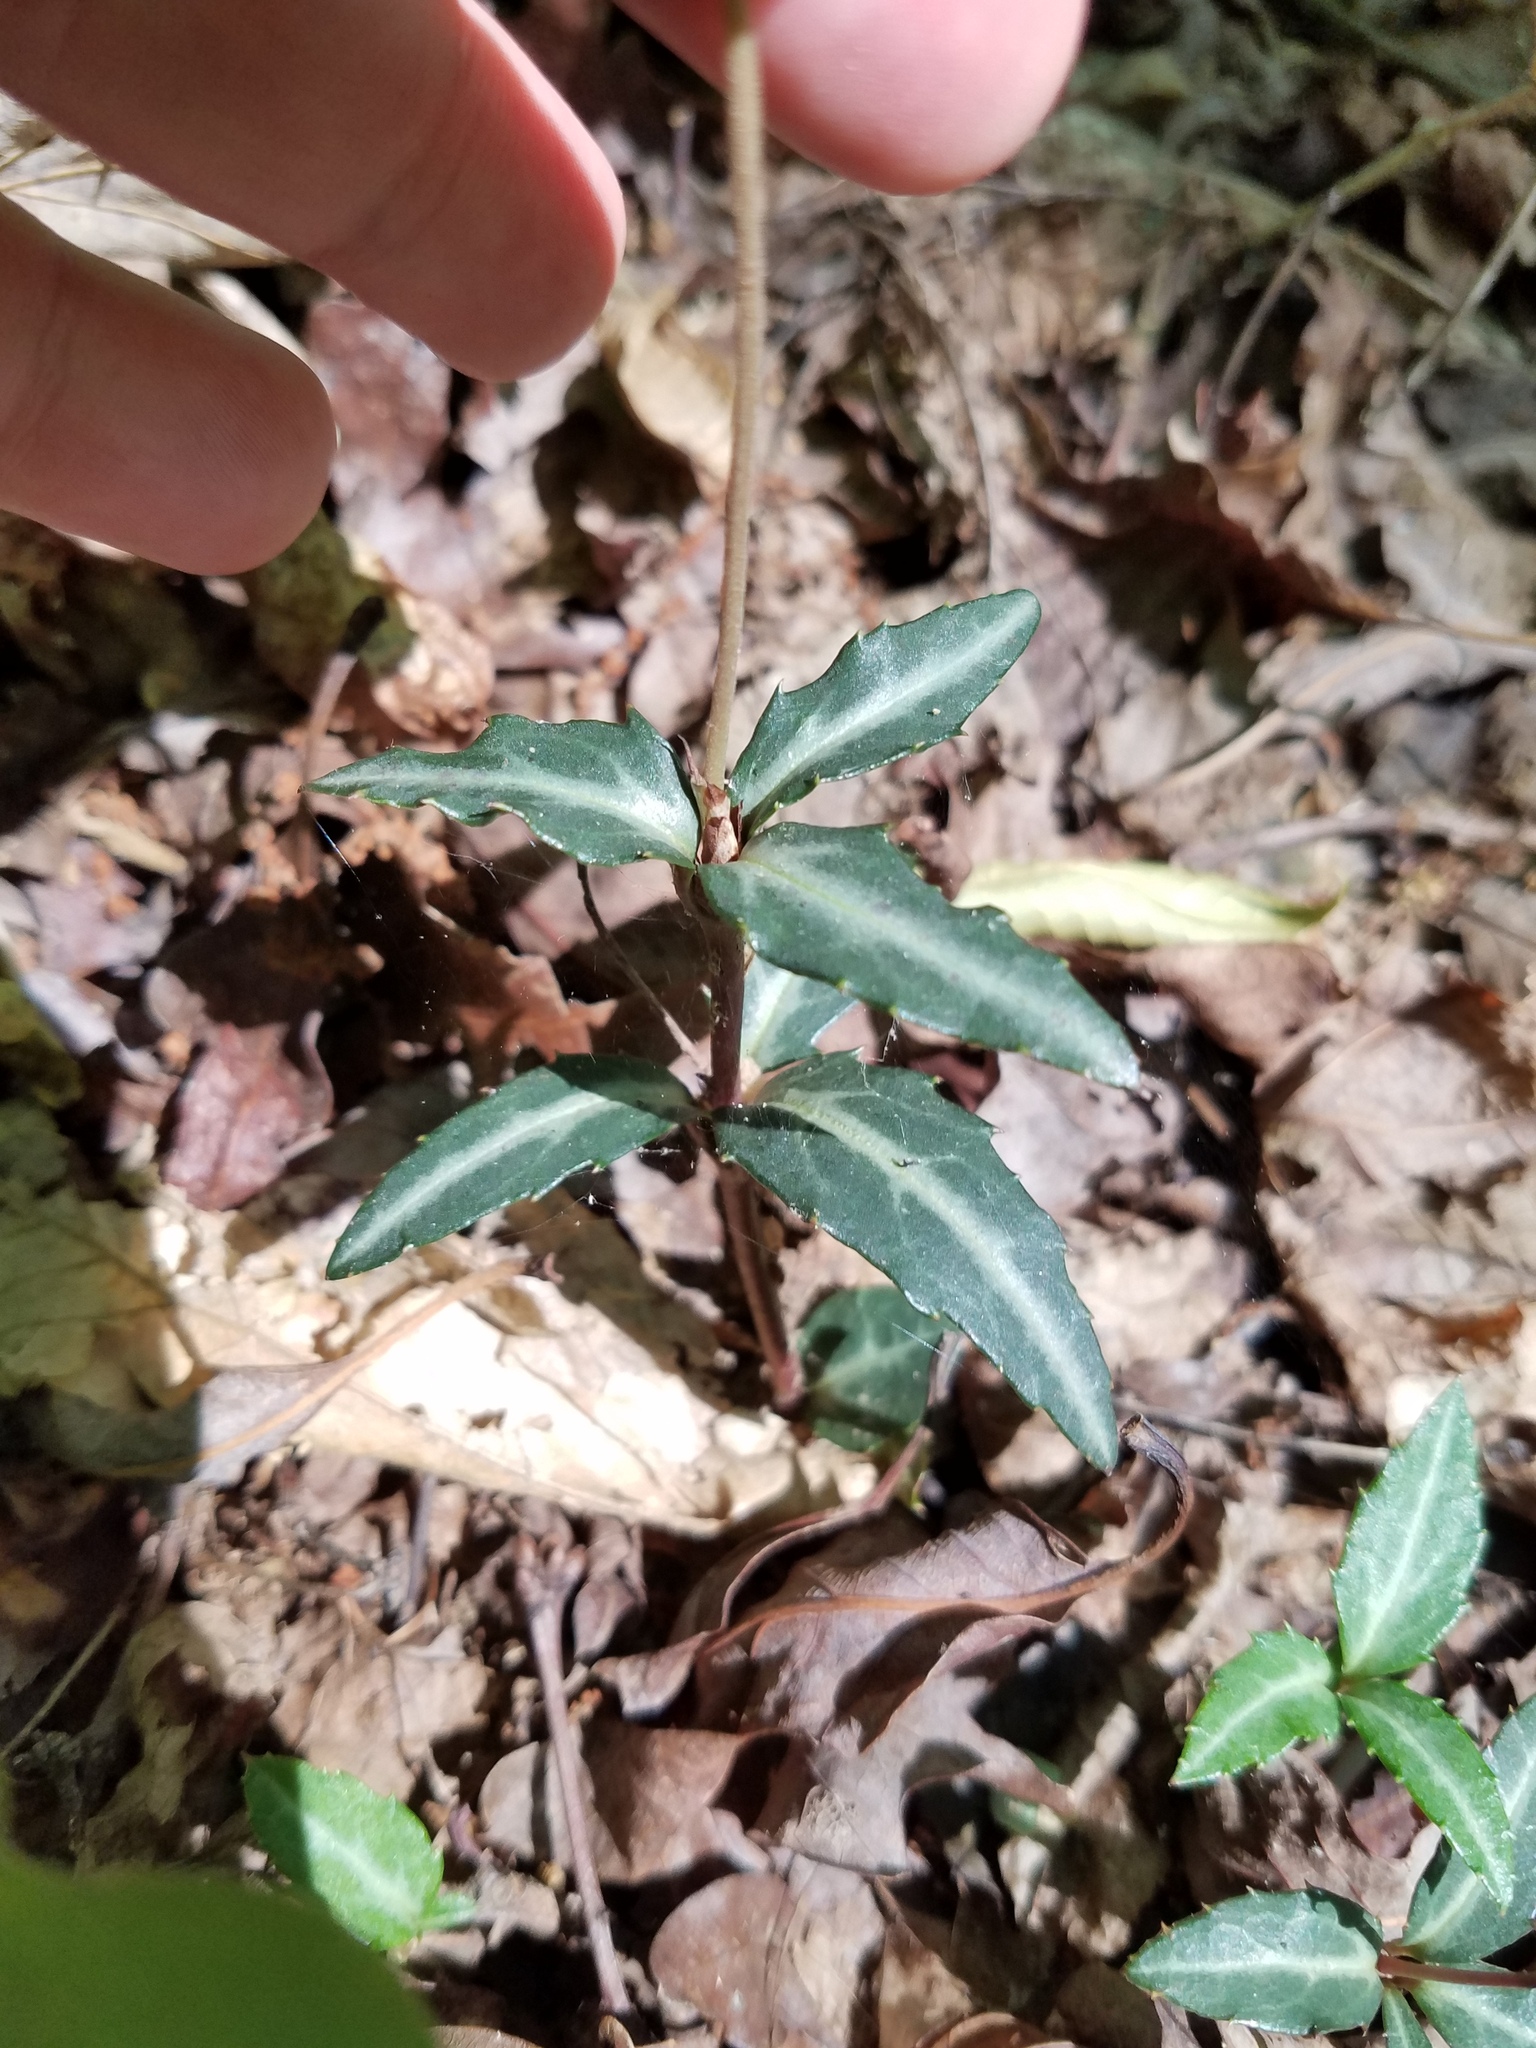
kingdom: Plantae
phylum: Tracheophyta
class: Magnoliopsida
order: Ericales
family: Ericaceae
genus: Chimaphila
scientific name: Chimaphila maculata
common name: Spotted pipsissewa
